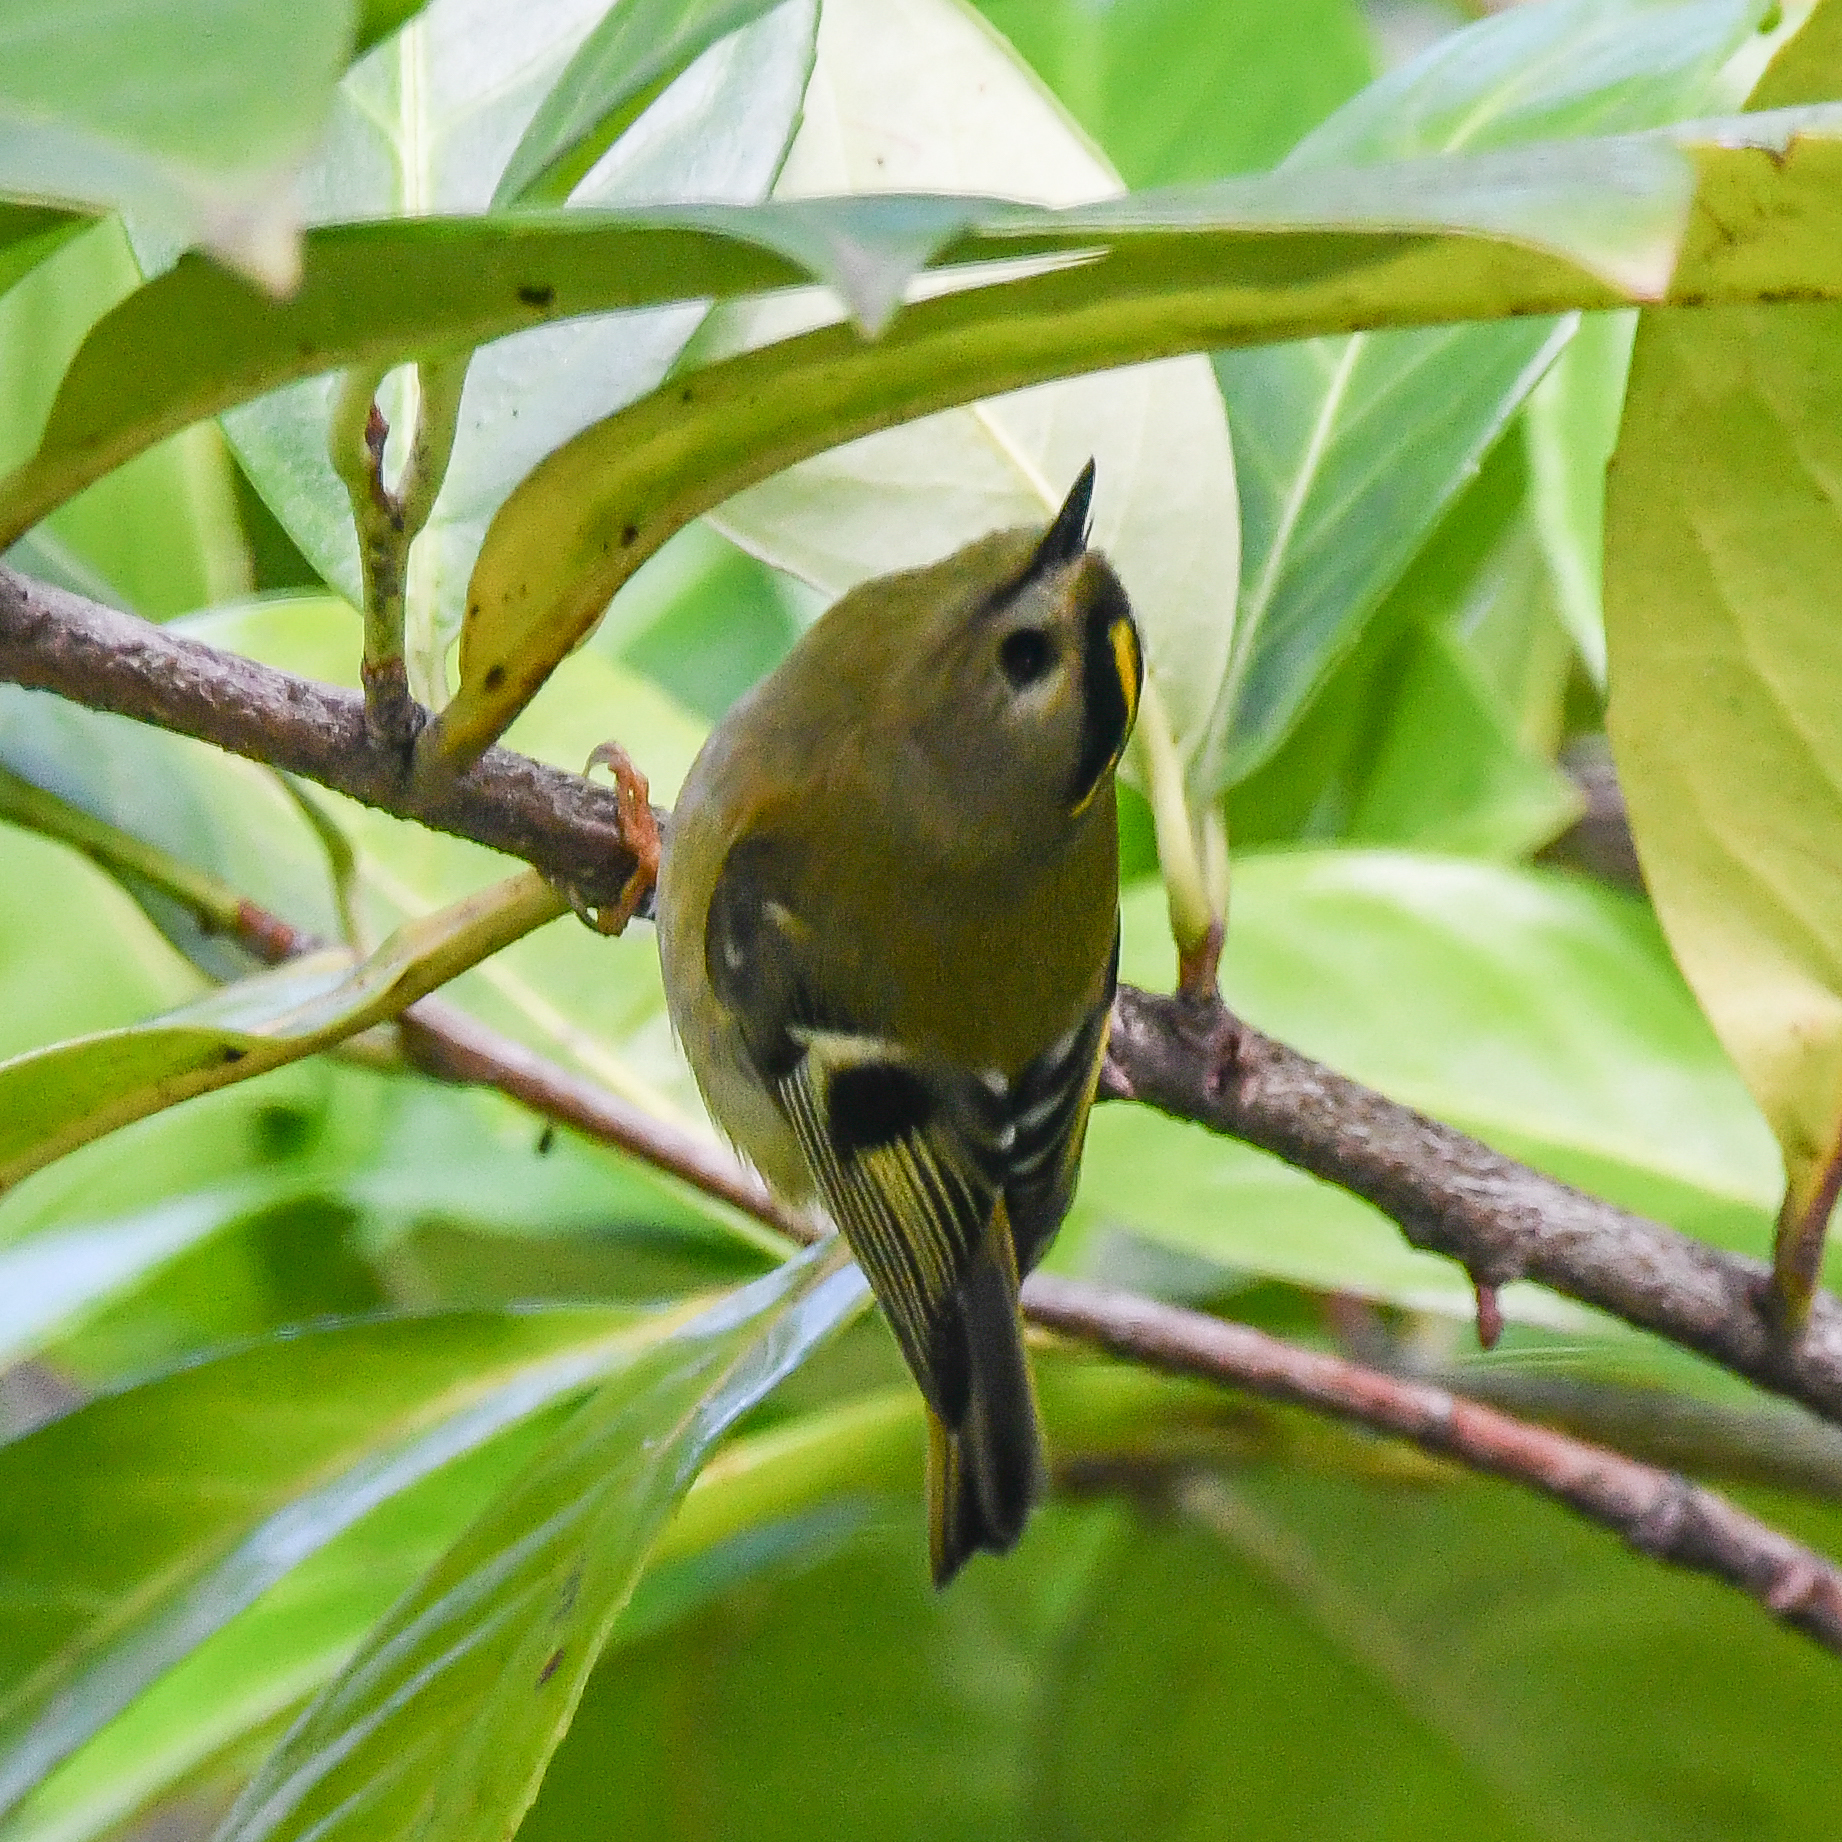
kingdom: Animalia
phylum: Chordata
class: Aves
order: Passeriformes
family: Regulidae
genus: Regulus
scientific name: Regulus regulus
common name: Goldcrest
